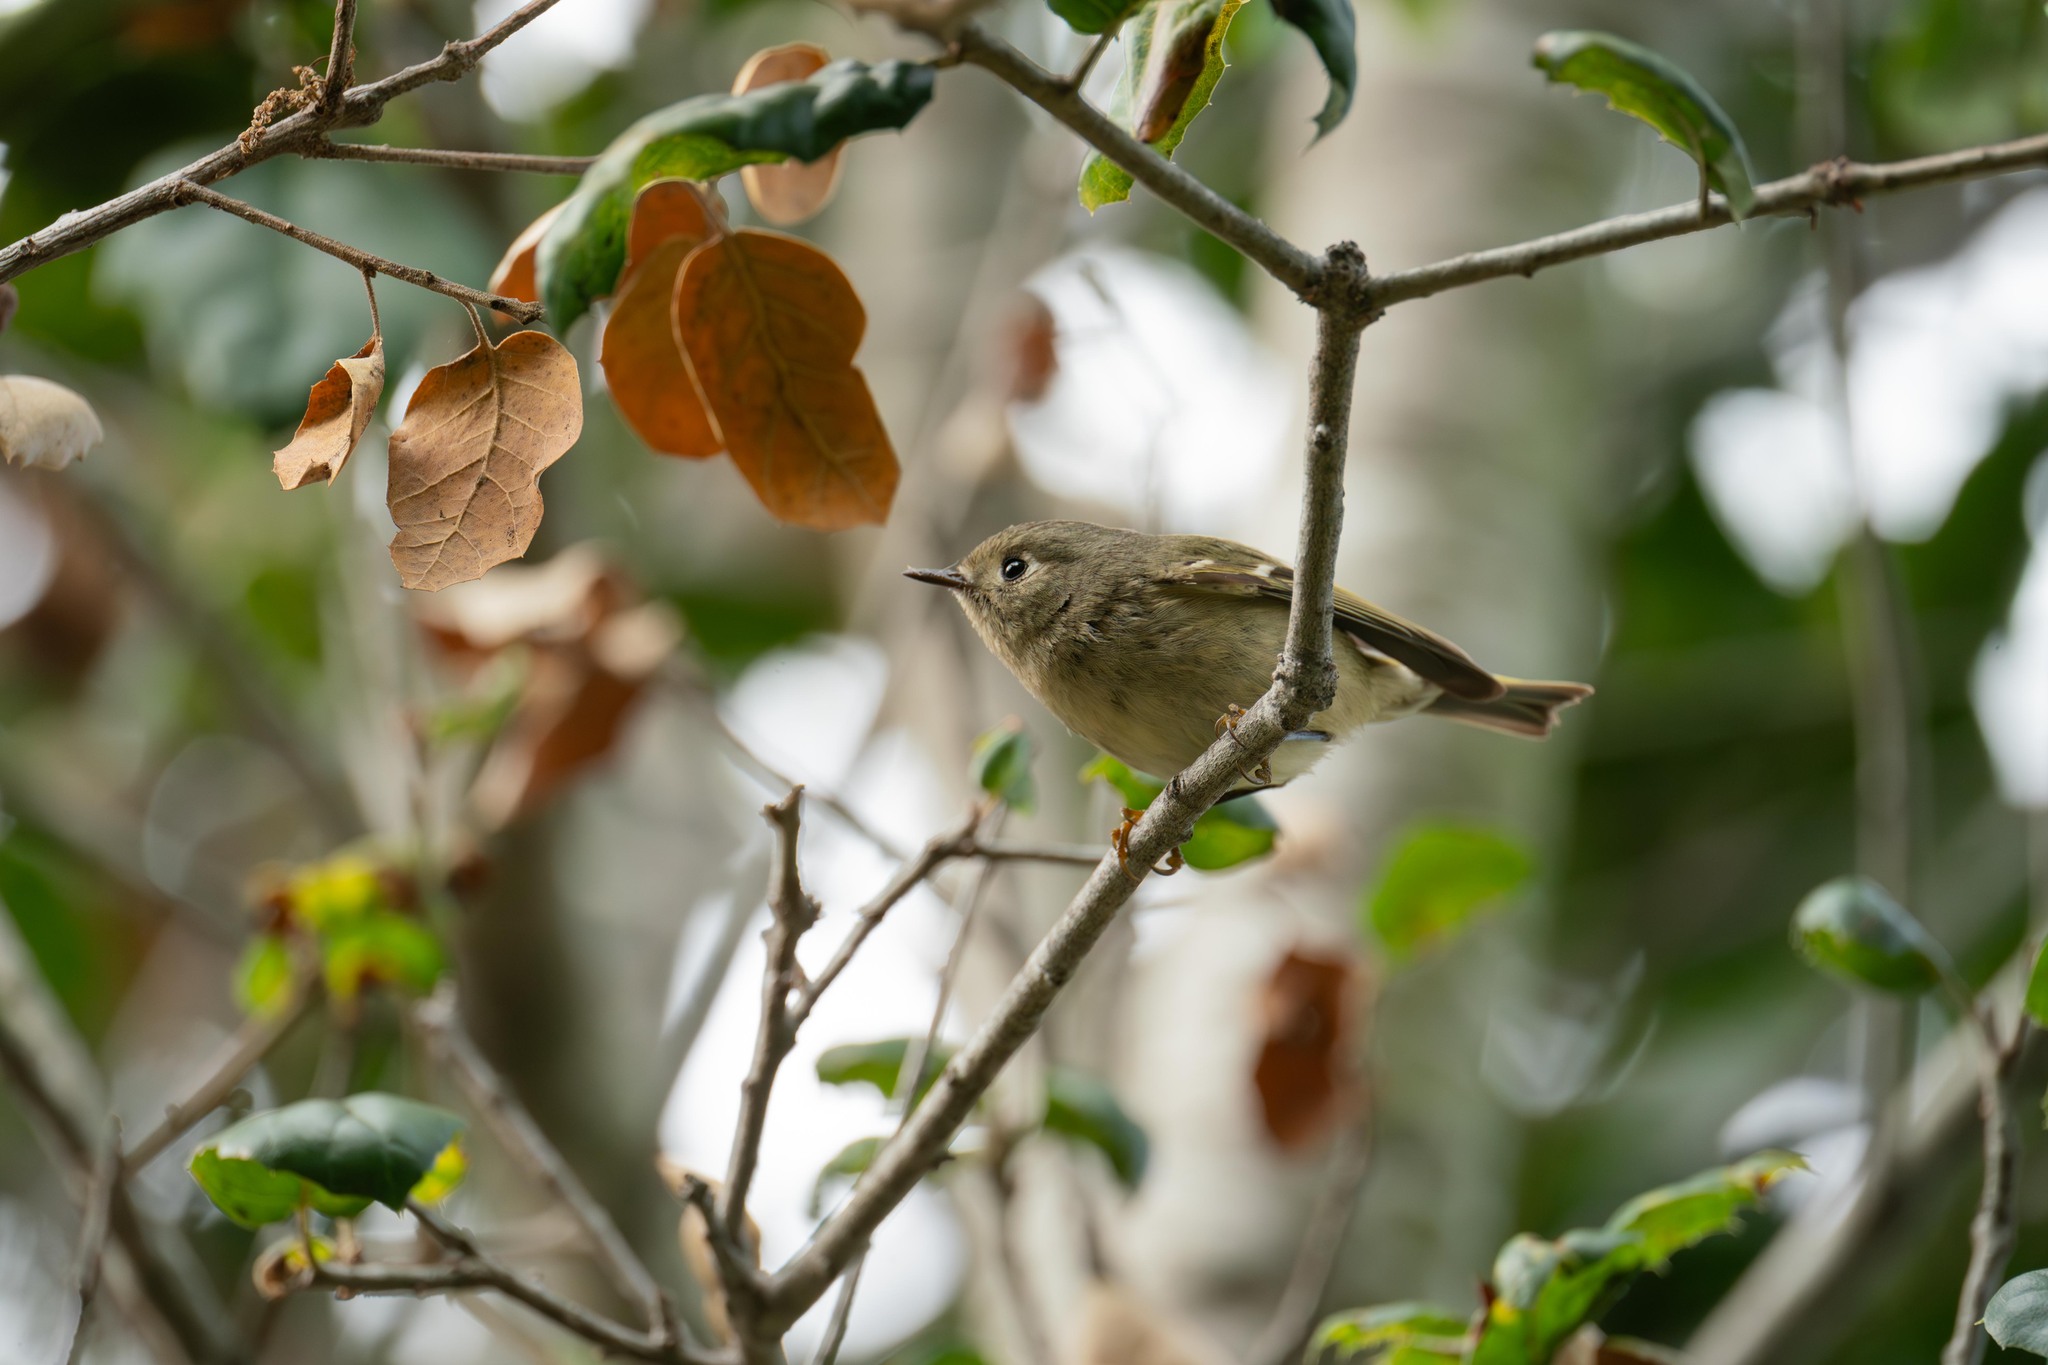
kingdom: Animalia
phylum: Chordata
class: Aves
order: Passeriformes
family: Regulidae
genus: Regulus
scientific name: Regulus calendula
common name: Ruby-crowned kinglet
